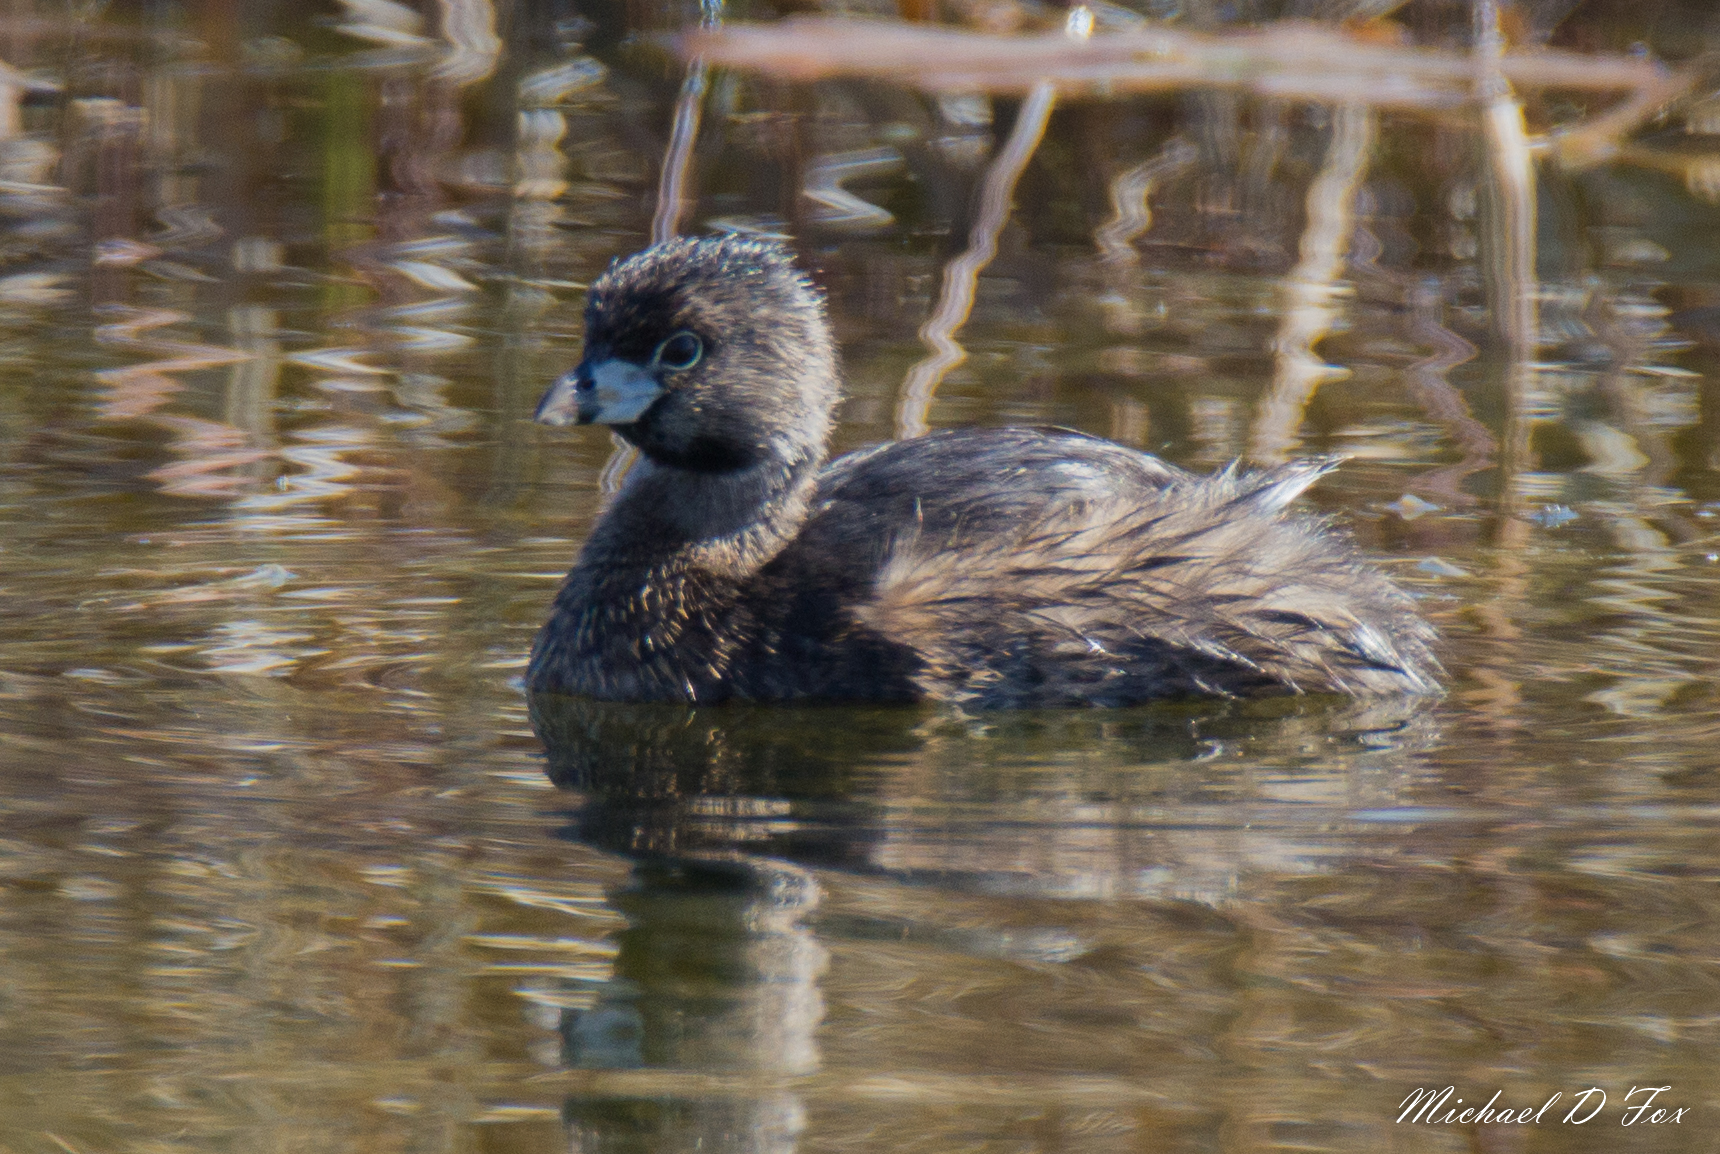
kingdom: Animalia
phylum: Chordata
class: Aves
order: Podicipediformes
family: Podicipedidae
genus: Podilymbus
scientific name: Podilymbus podiceps
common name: Pied-billed grebe
